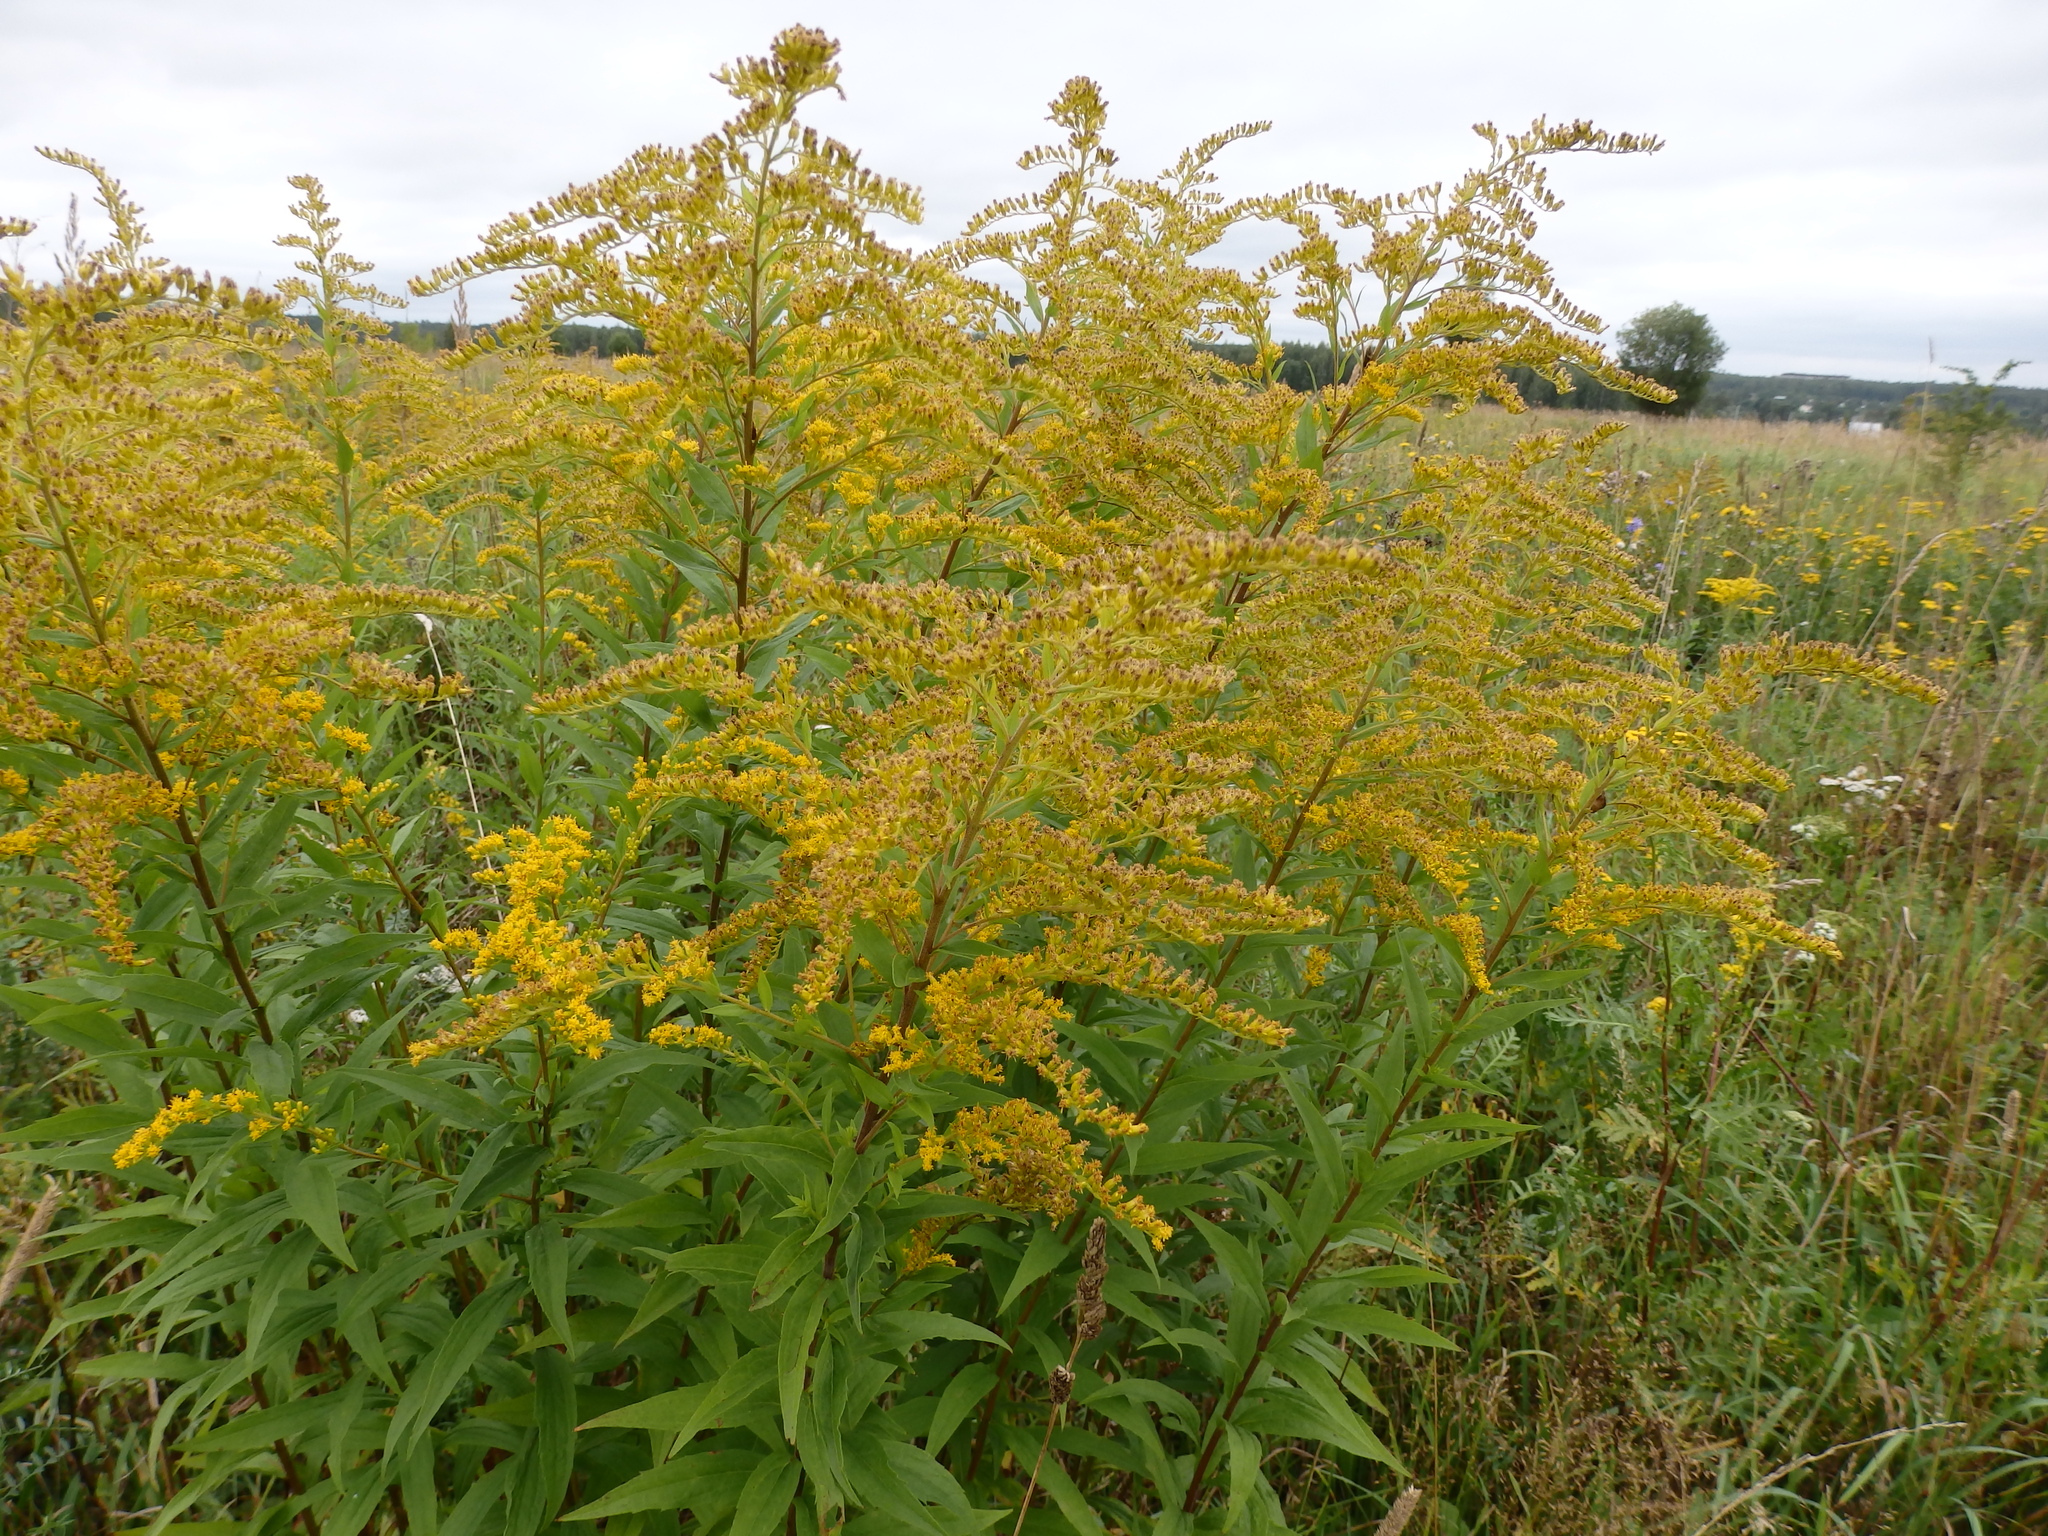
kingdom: Plantae
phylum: Tracheophyta
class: Magnoliopsida
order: Asterales
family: Asteraceae
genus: Solidago
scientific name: Solidago canadensis
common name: Canada goldenrod
